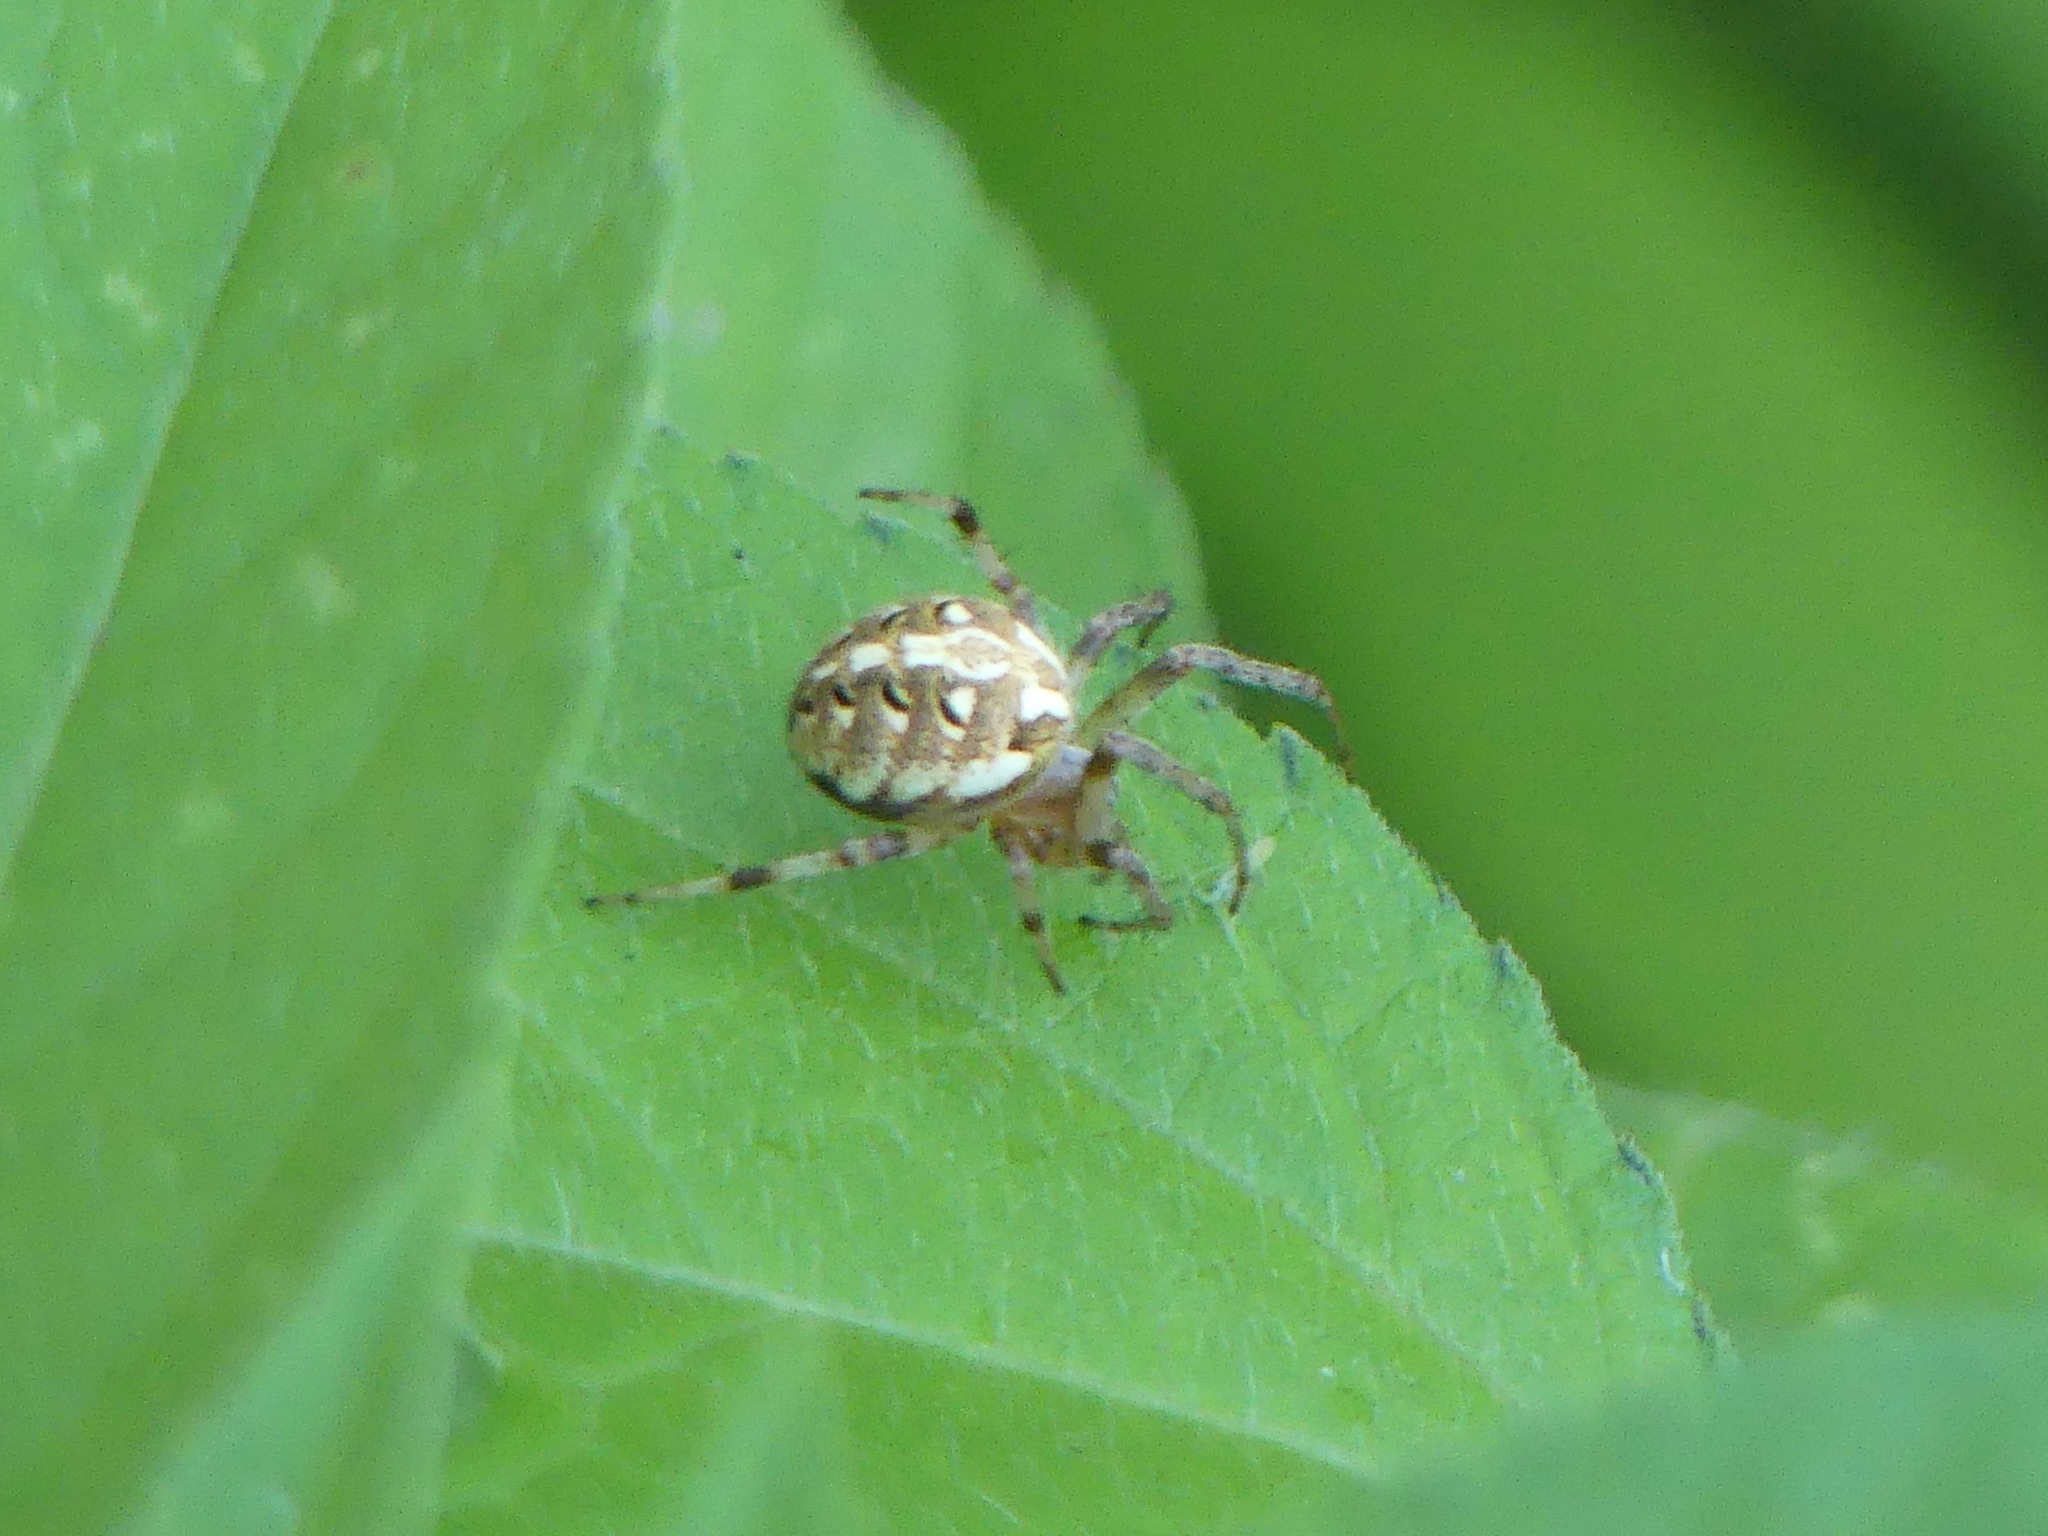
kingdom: Animalia
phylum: Arthropoda
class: Arachnida
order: Araneae
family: Araneidae
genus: Neoscona
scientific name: Neoscona arabesca
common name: Orb weavers
